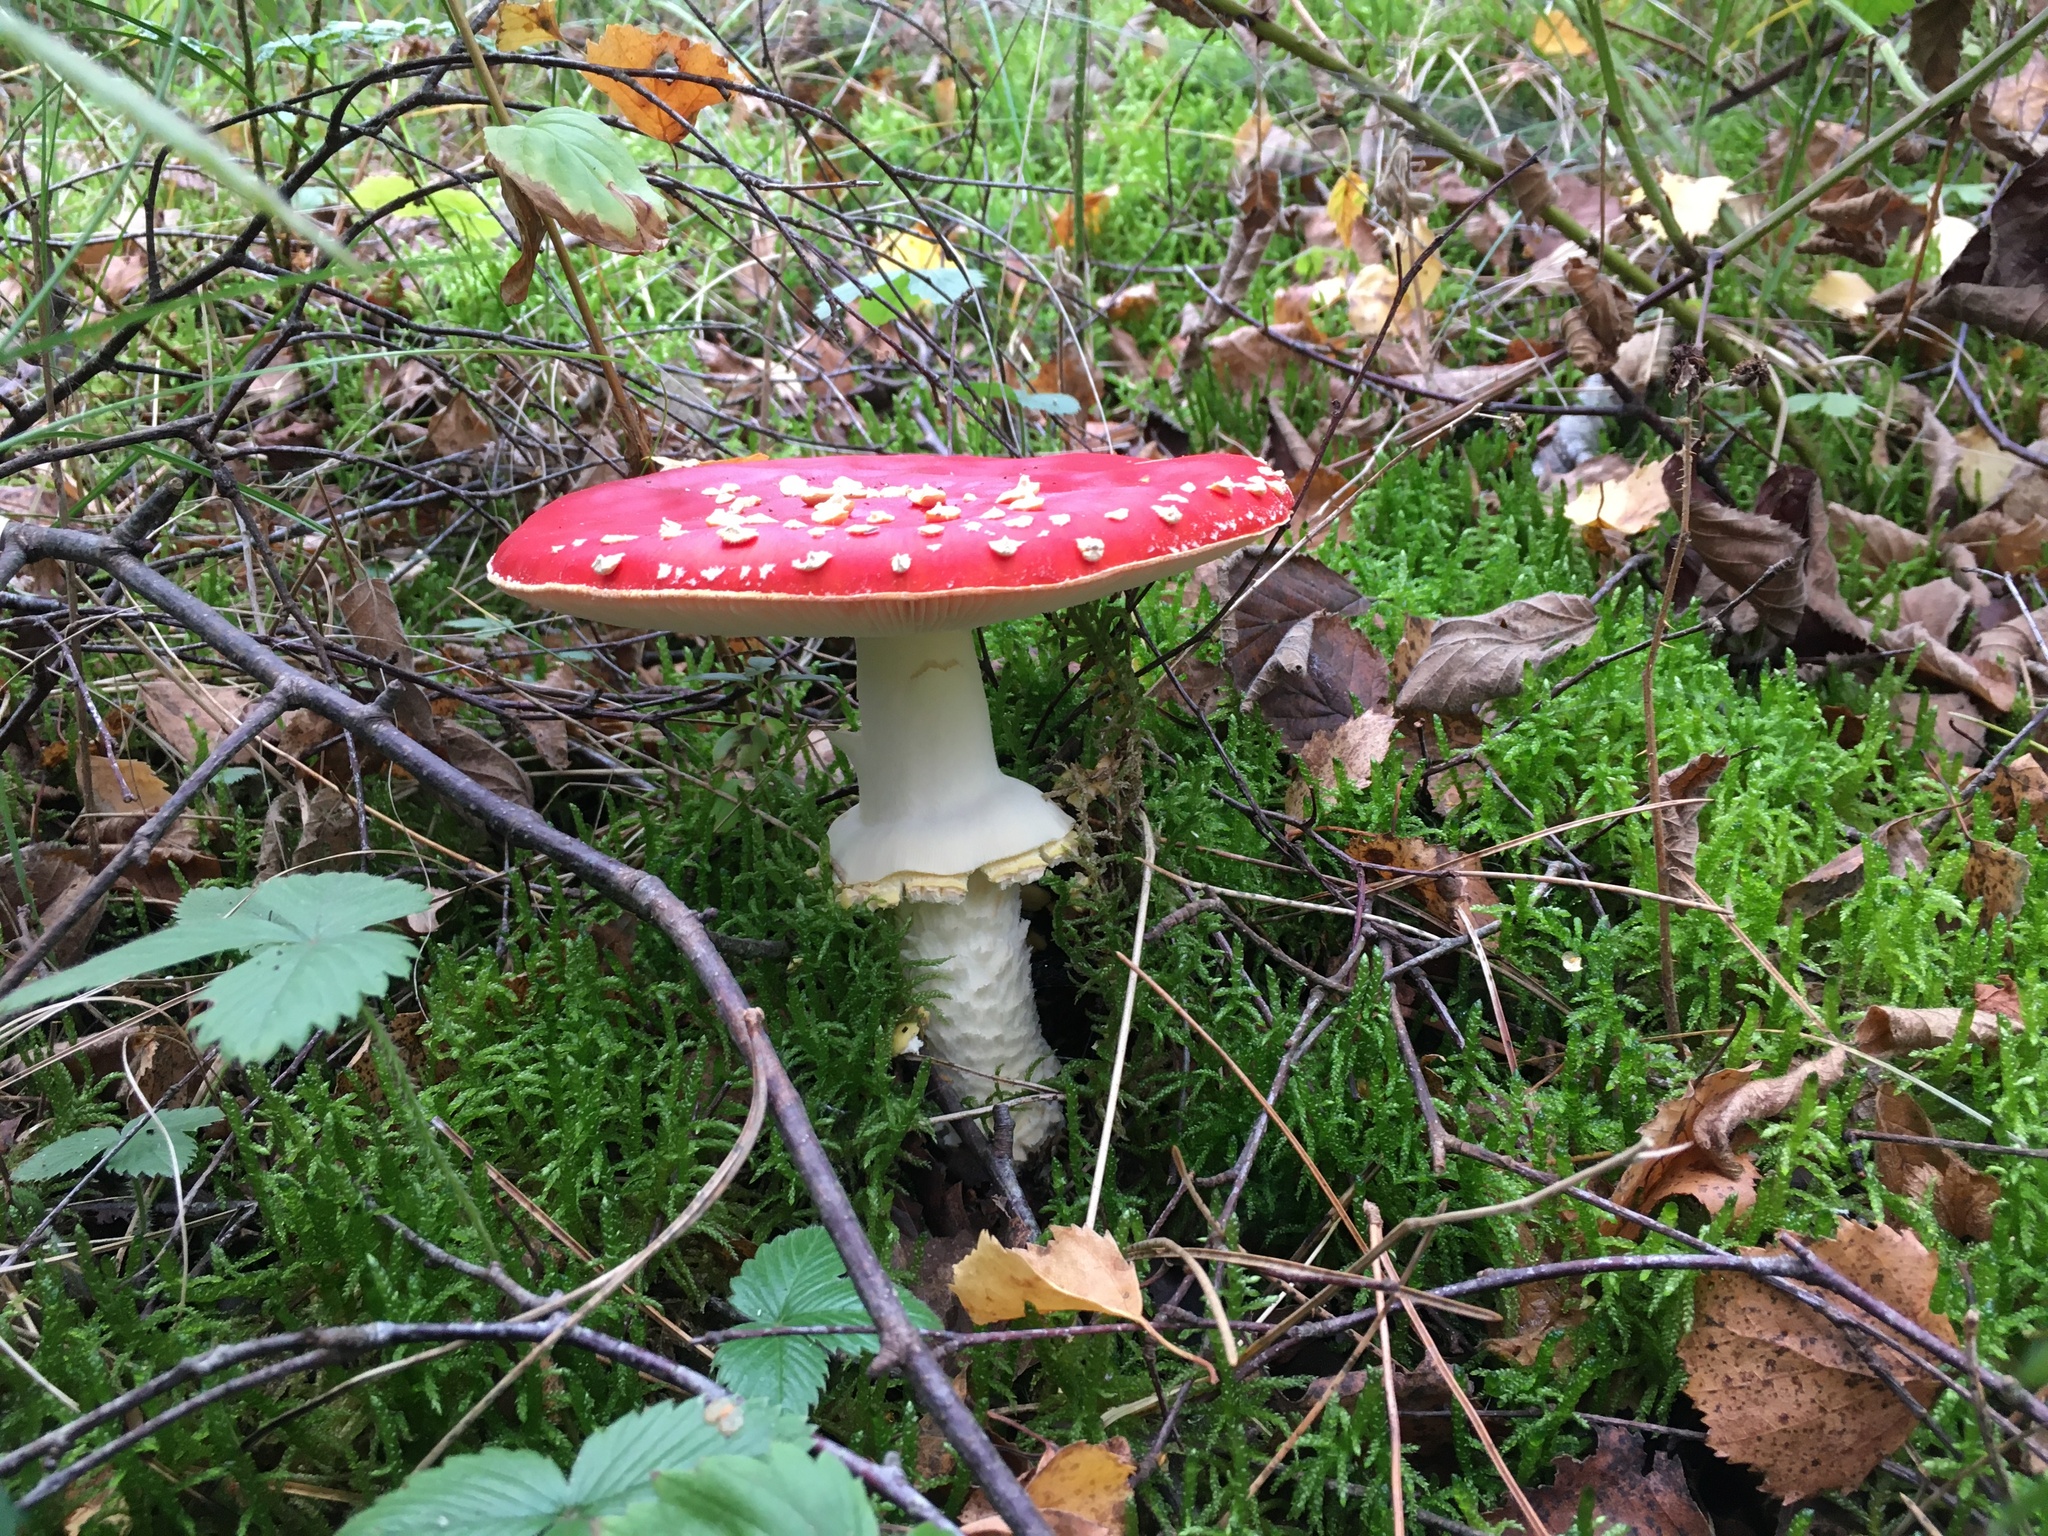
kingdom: Fungi
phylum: Basidiomycota
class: Agaricomycetes
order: Agaricales
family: Amanitaceae
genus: Amanita
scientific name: Amanita muscaria
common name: Fly agaric
